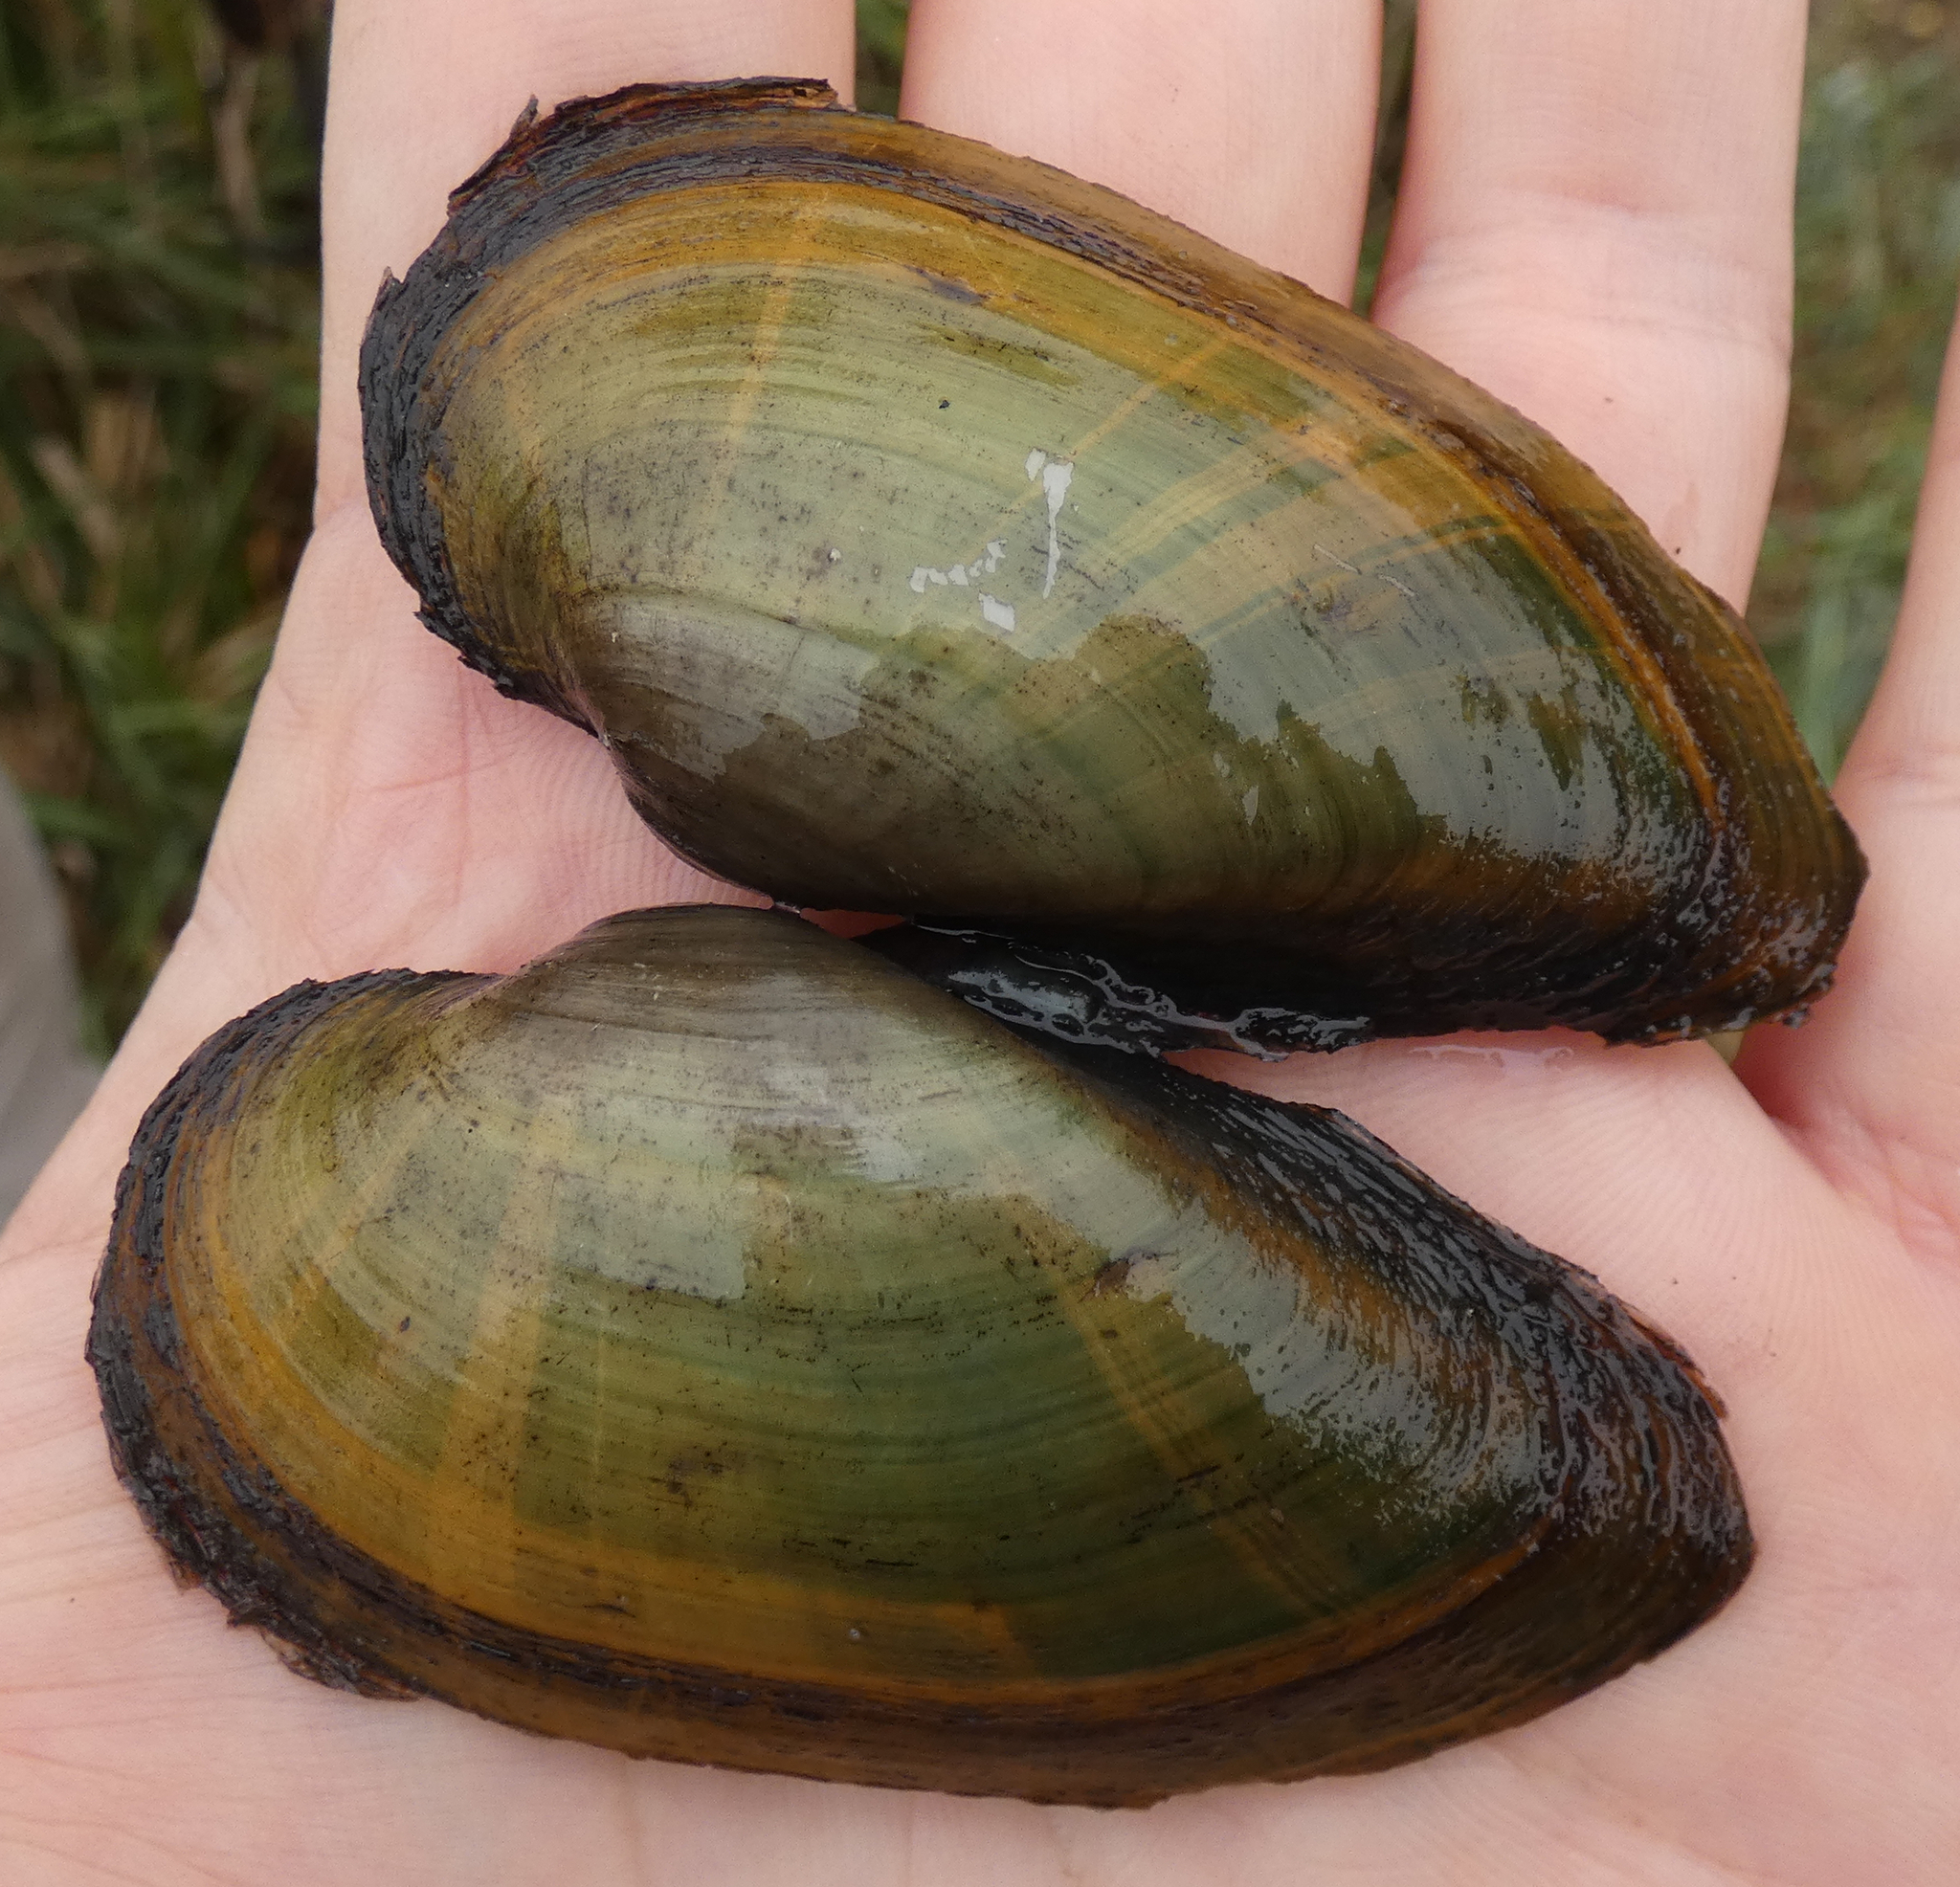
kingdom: Animalia
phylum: Mollusca
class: Bivalvia
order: Unionida
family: Unionidae
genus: Unio
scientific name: Unio tumidus
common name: Swollen river mussel
